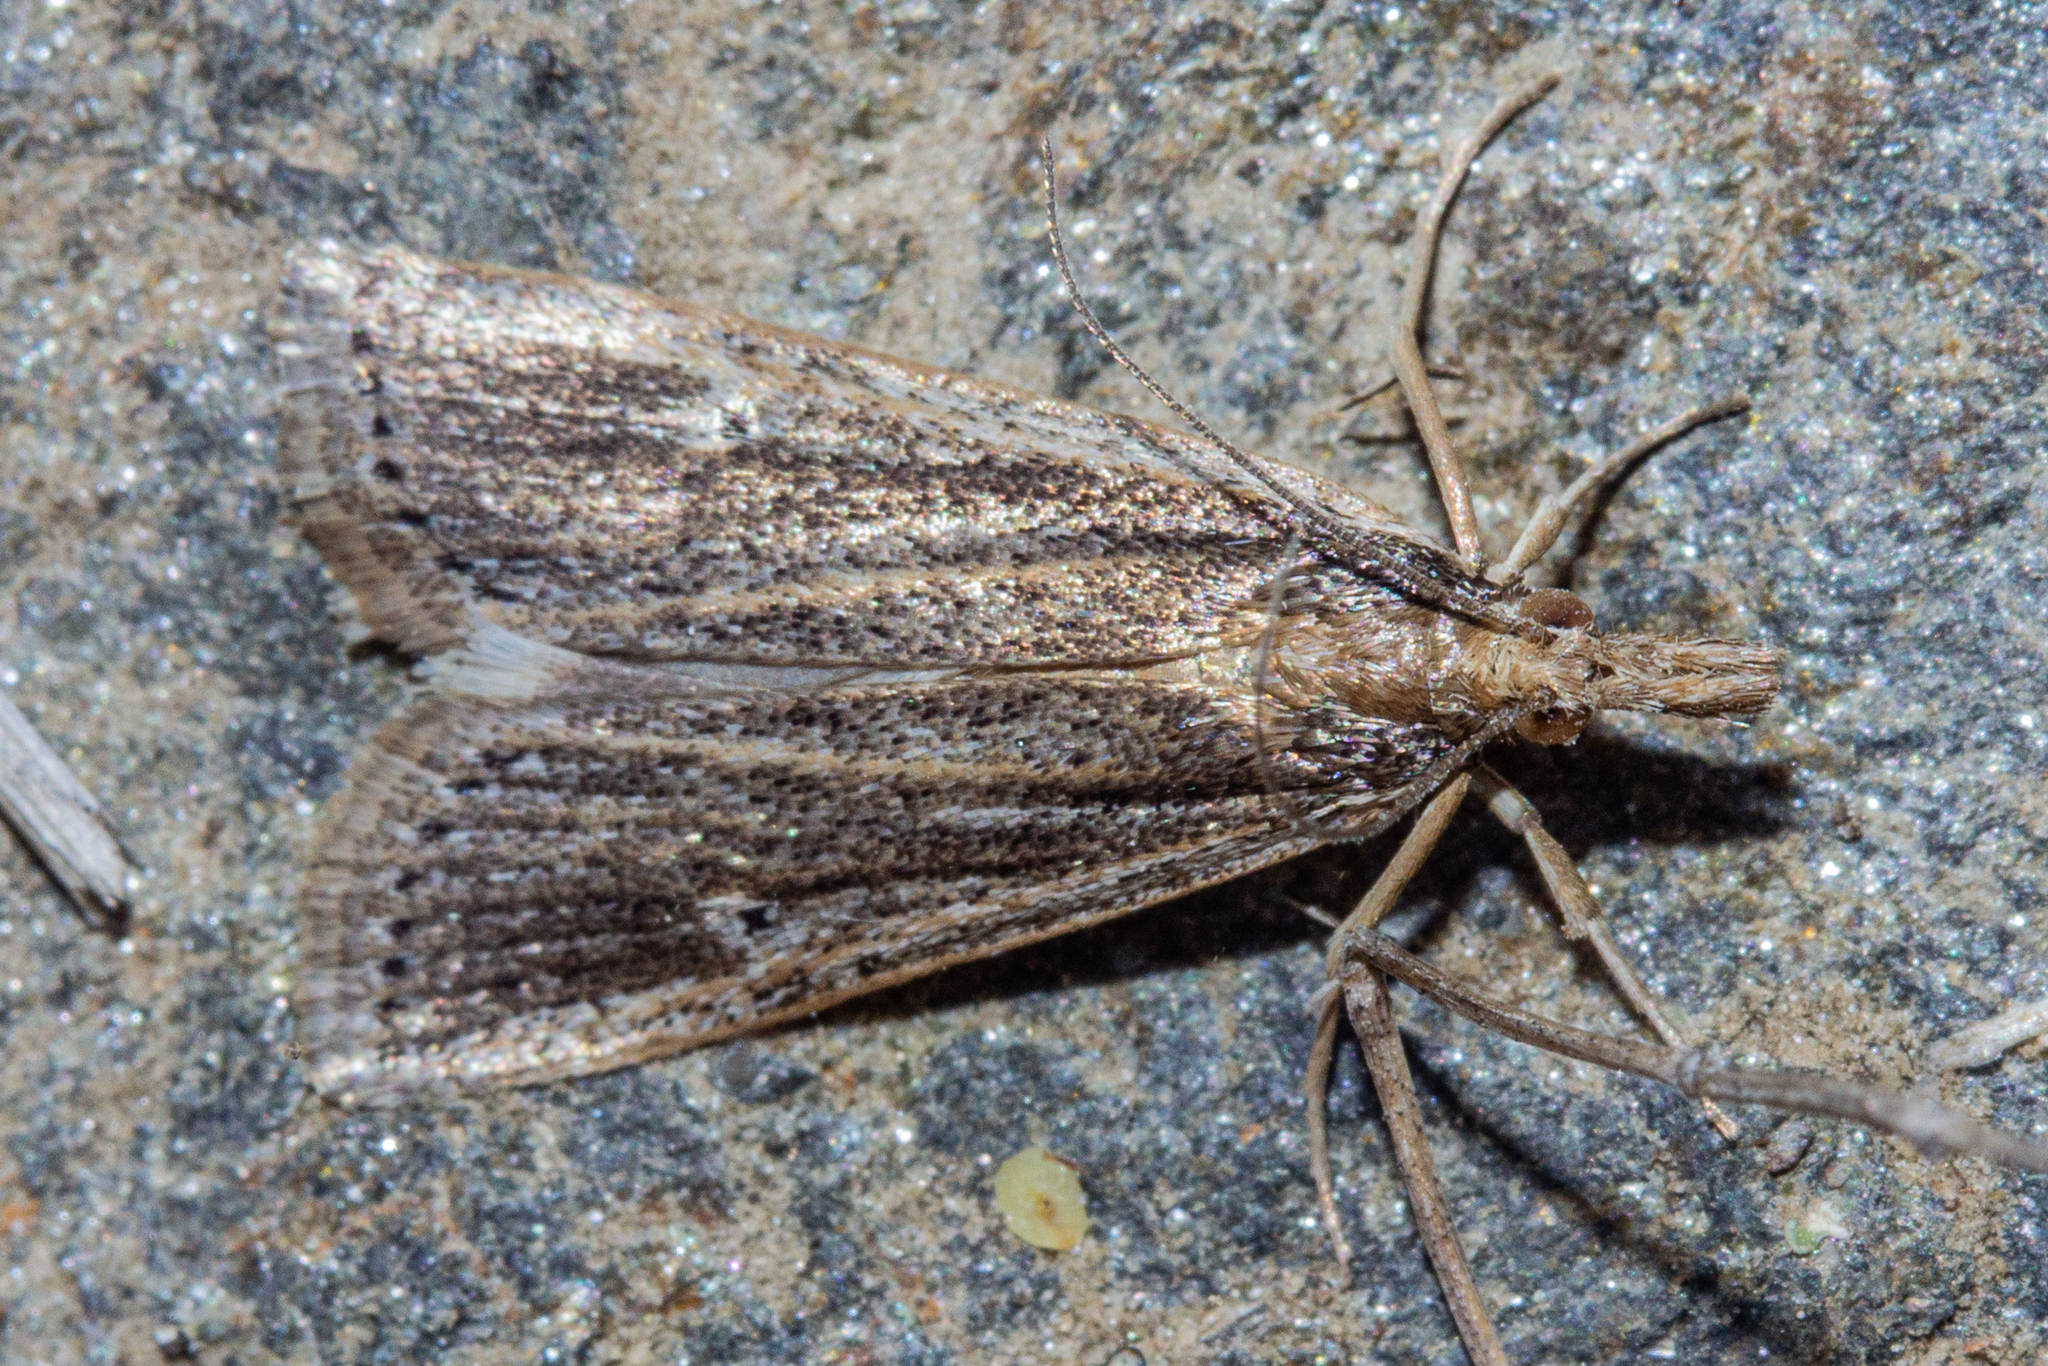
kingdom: Animalia
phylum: Arthropoda
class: Insecta
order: Lepidoptera
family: Crambidae
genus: Eudonia
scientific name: Eudonia sabulosella
